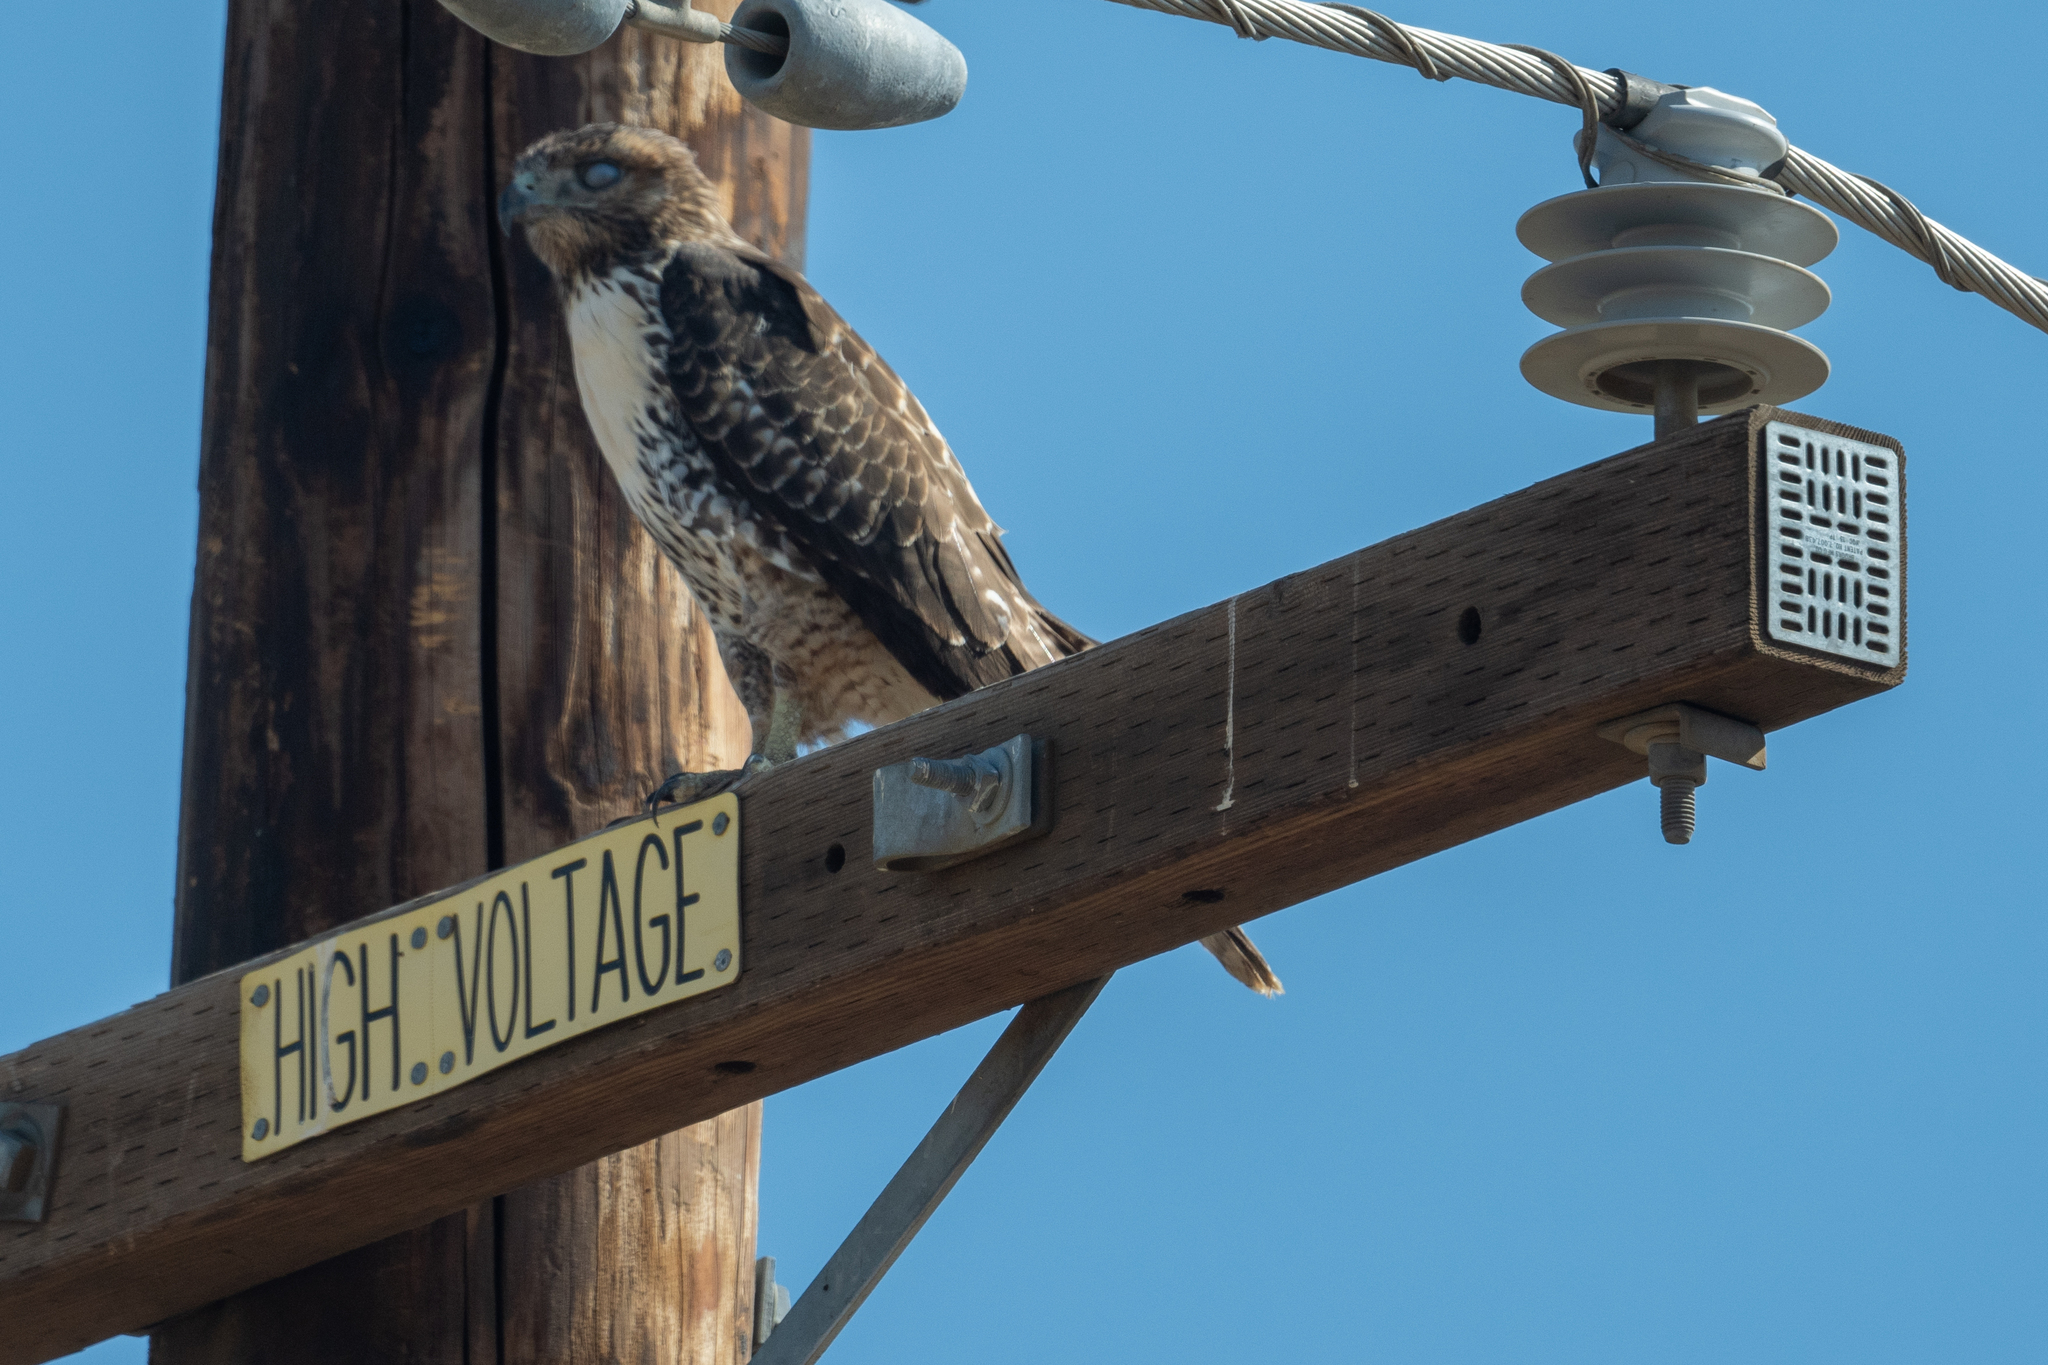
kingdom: Animalia
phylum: Chordata
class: Aves
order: Accipitriformes
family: Accipitridae
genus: Buteo
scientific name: Buteo jamaicensis
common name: Red-tailed hawk
